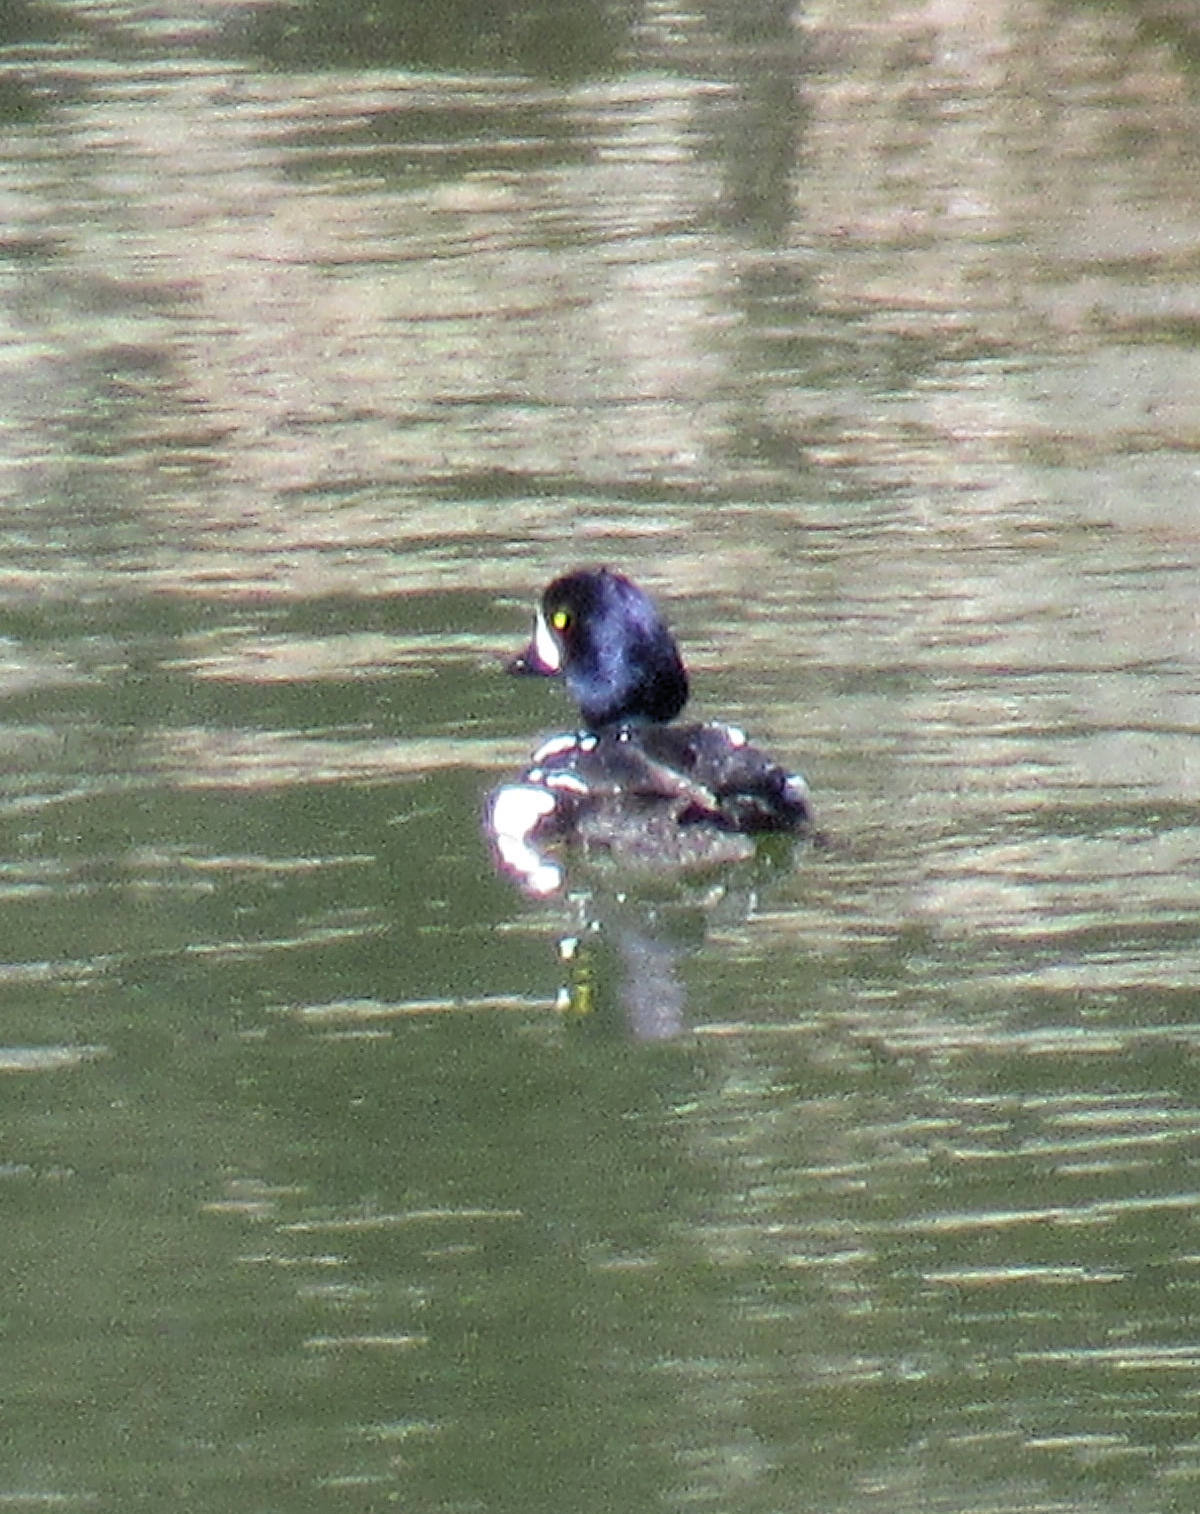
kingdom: Animalia
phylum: Chordata
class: Aves
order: Anseriformes
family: Anatidae
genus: Bucephala
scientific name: Bucephala islandica
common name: Barrow's goldeneye
